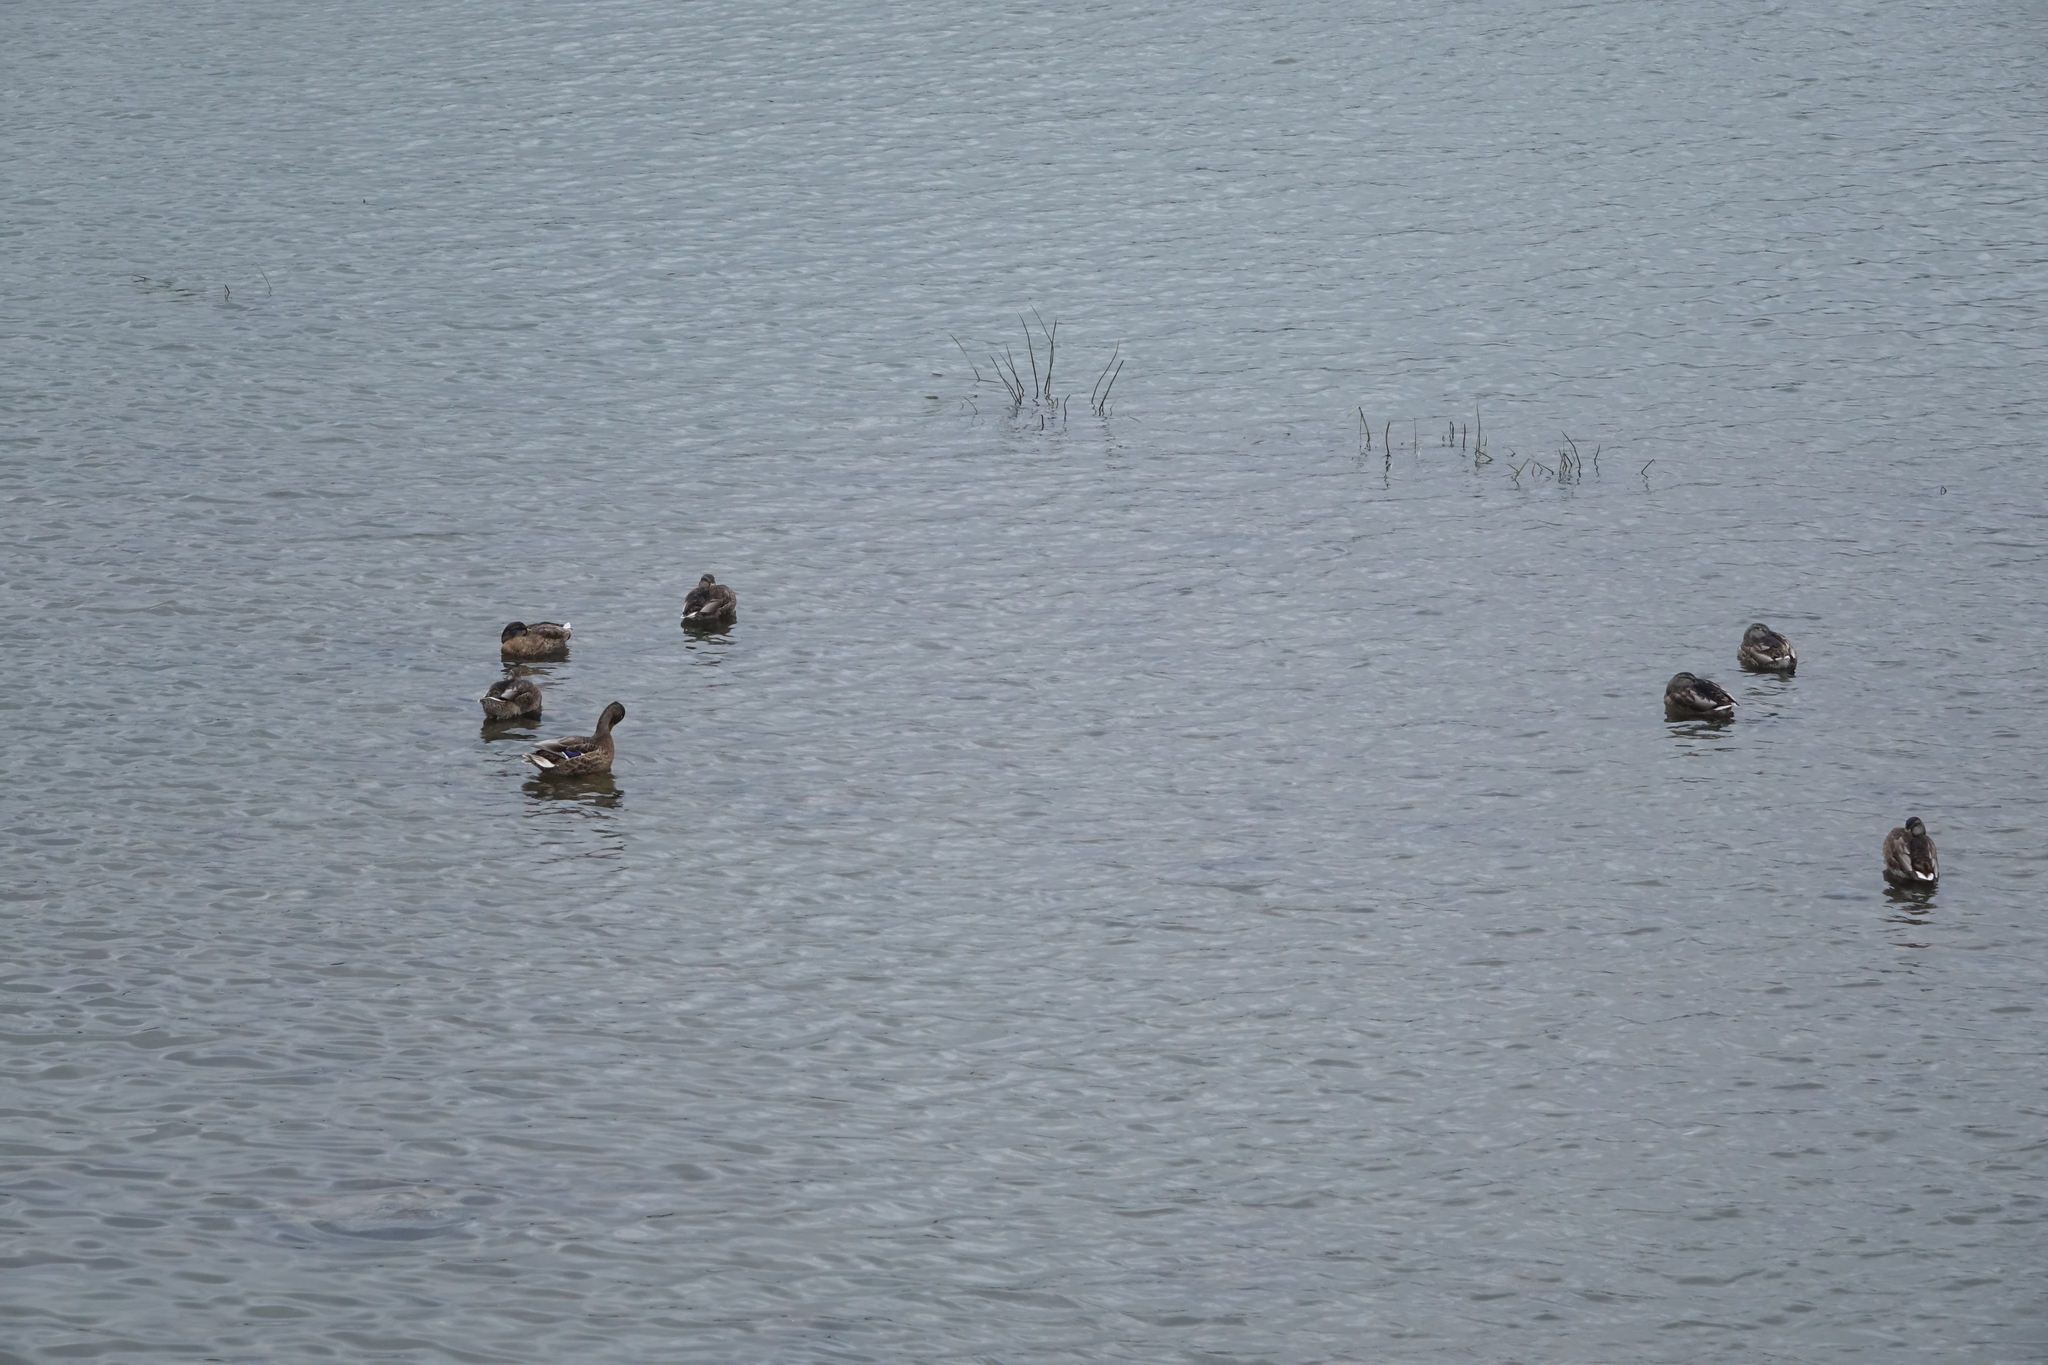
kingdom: Animalia
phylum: Chordata
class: Aves
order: Anseriformes
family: Anatidae
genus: Anas
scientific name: Anas platyrhynchos
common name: Mallard
